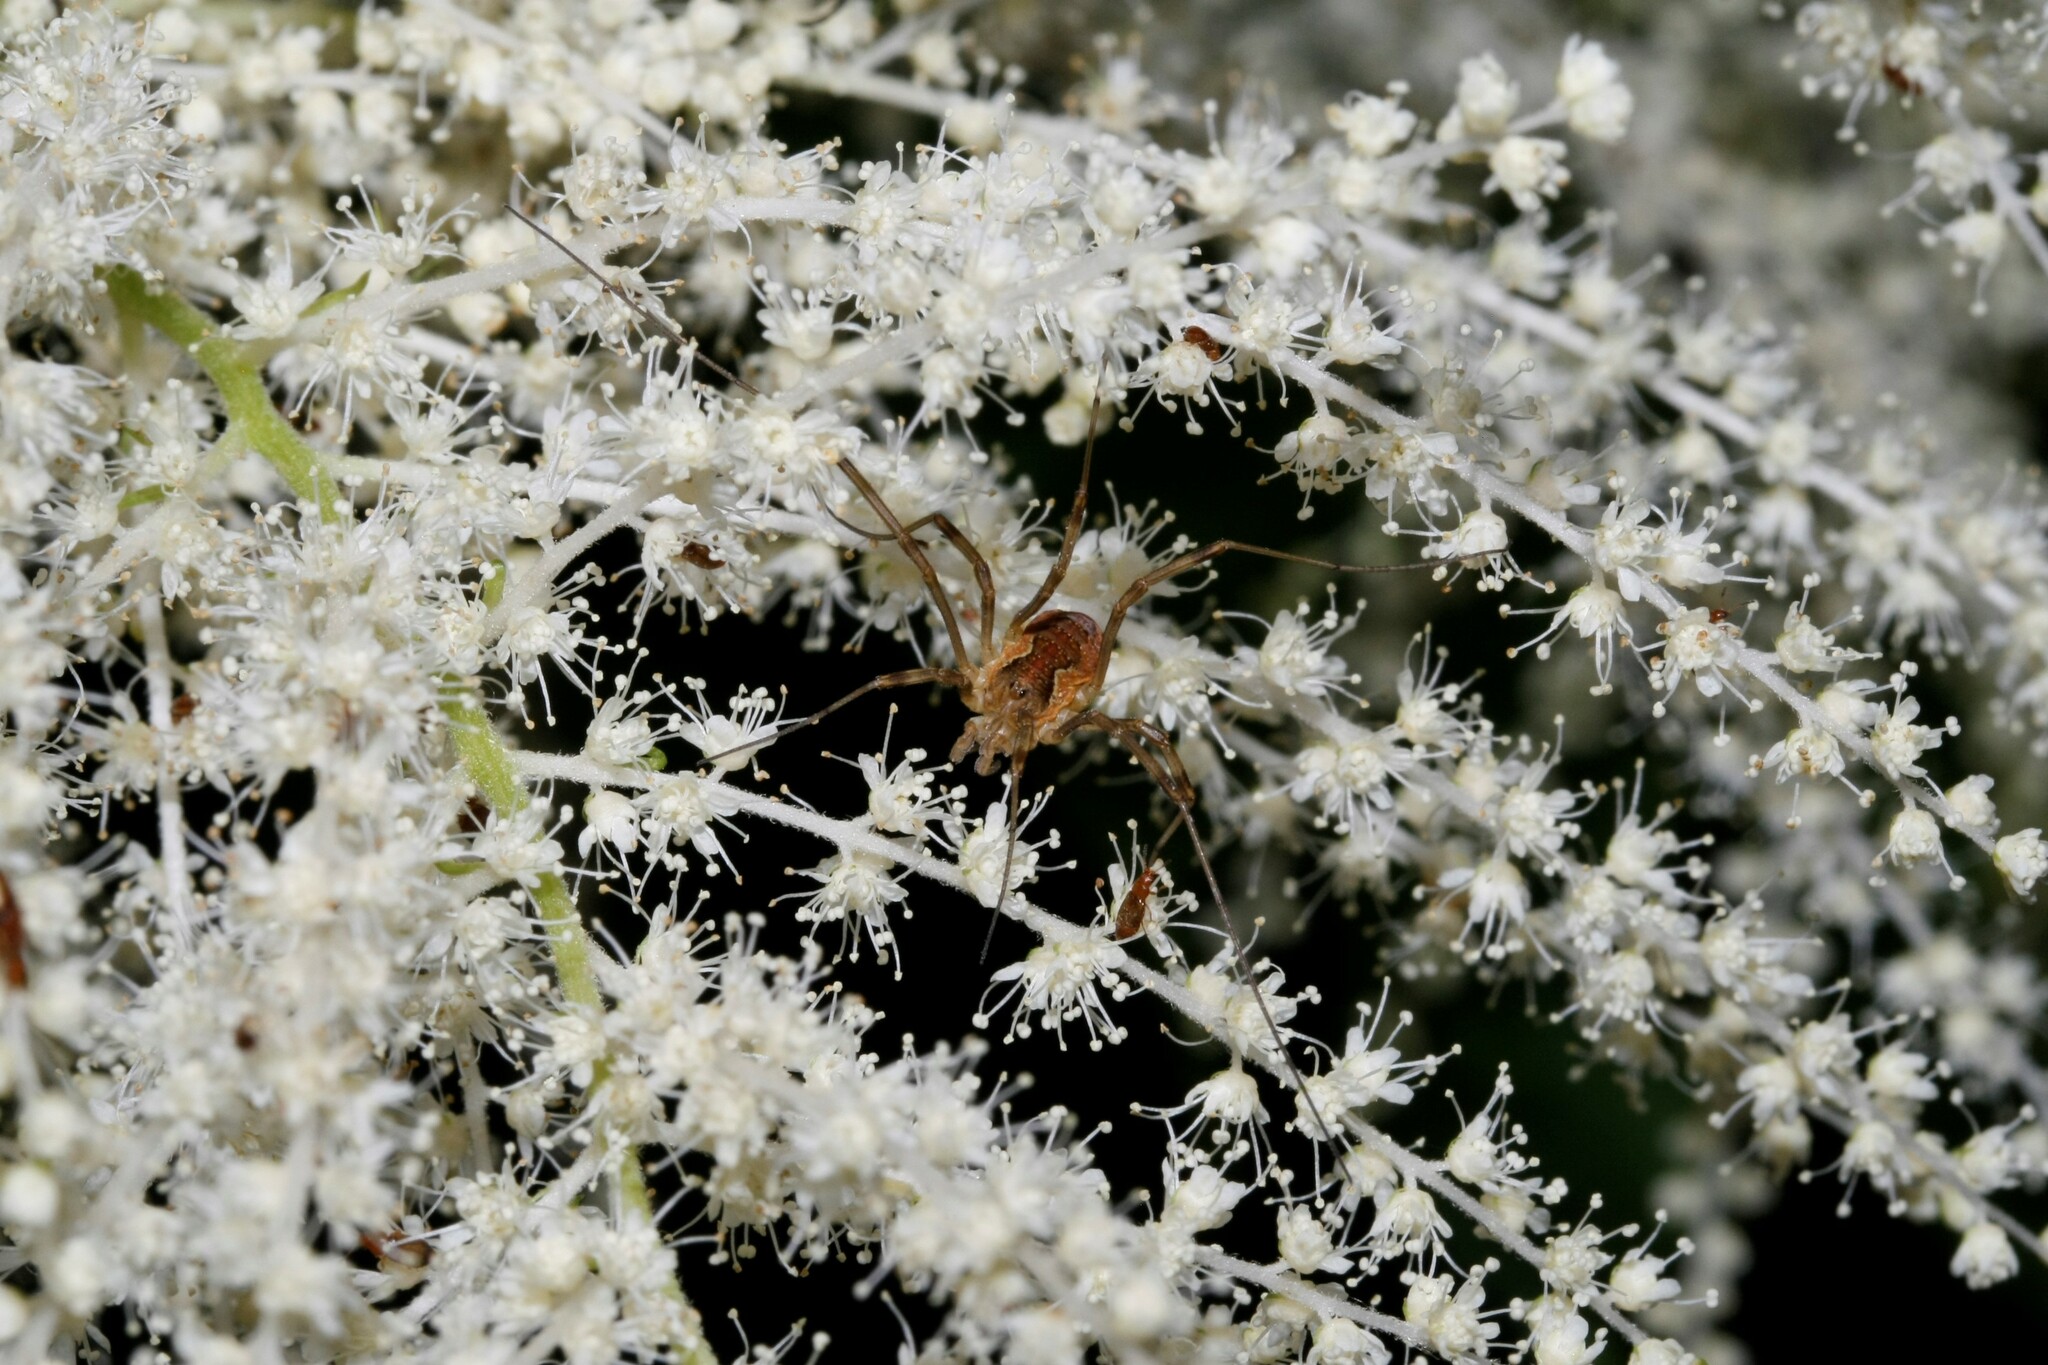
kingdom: Animalia
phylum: Arthropoda
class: Arachnida
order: Opiliones
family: Phalangiidae
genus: Mitopus
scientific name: Mitopus morio
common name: Saddleback harvestman
